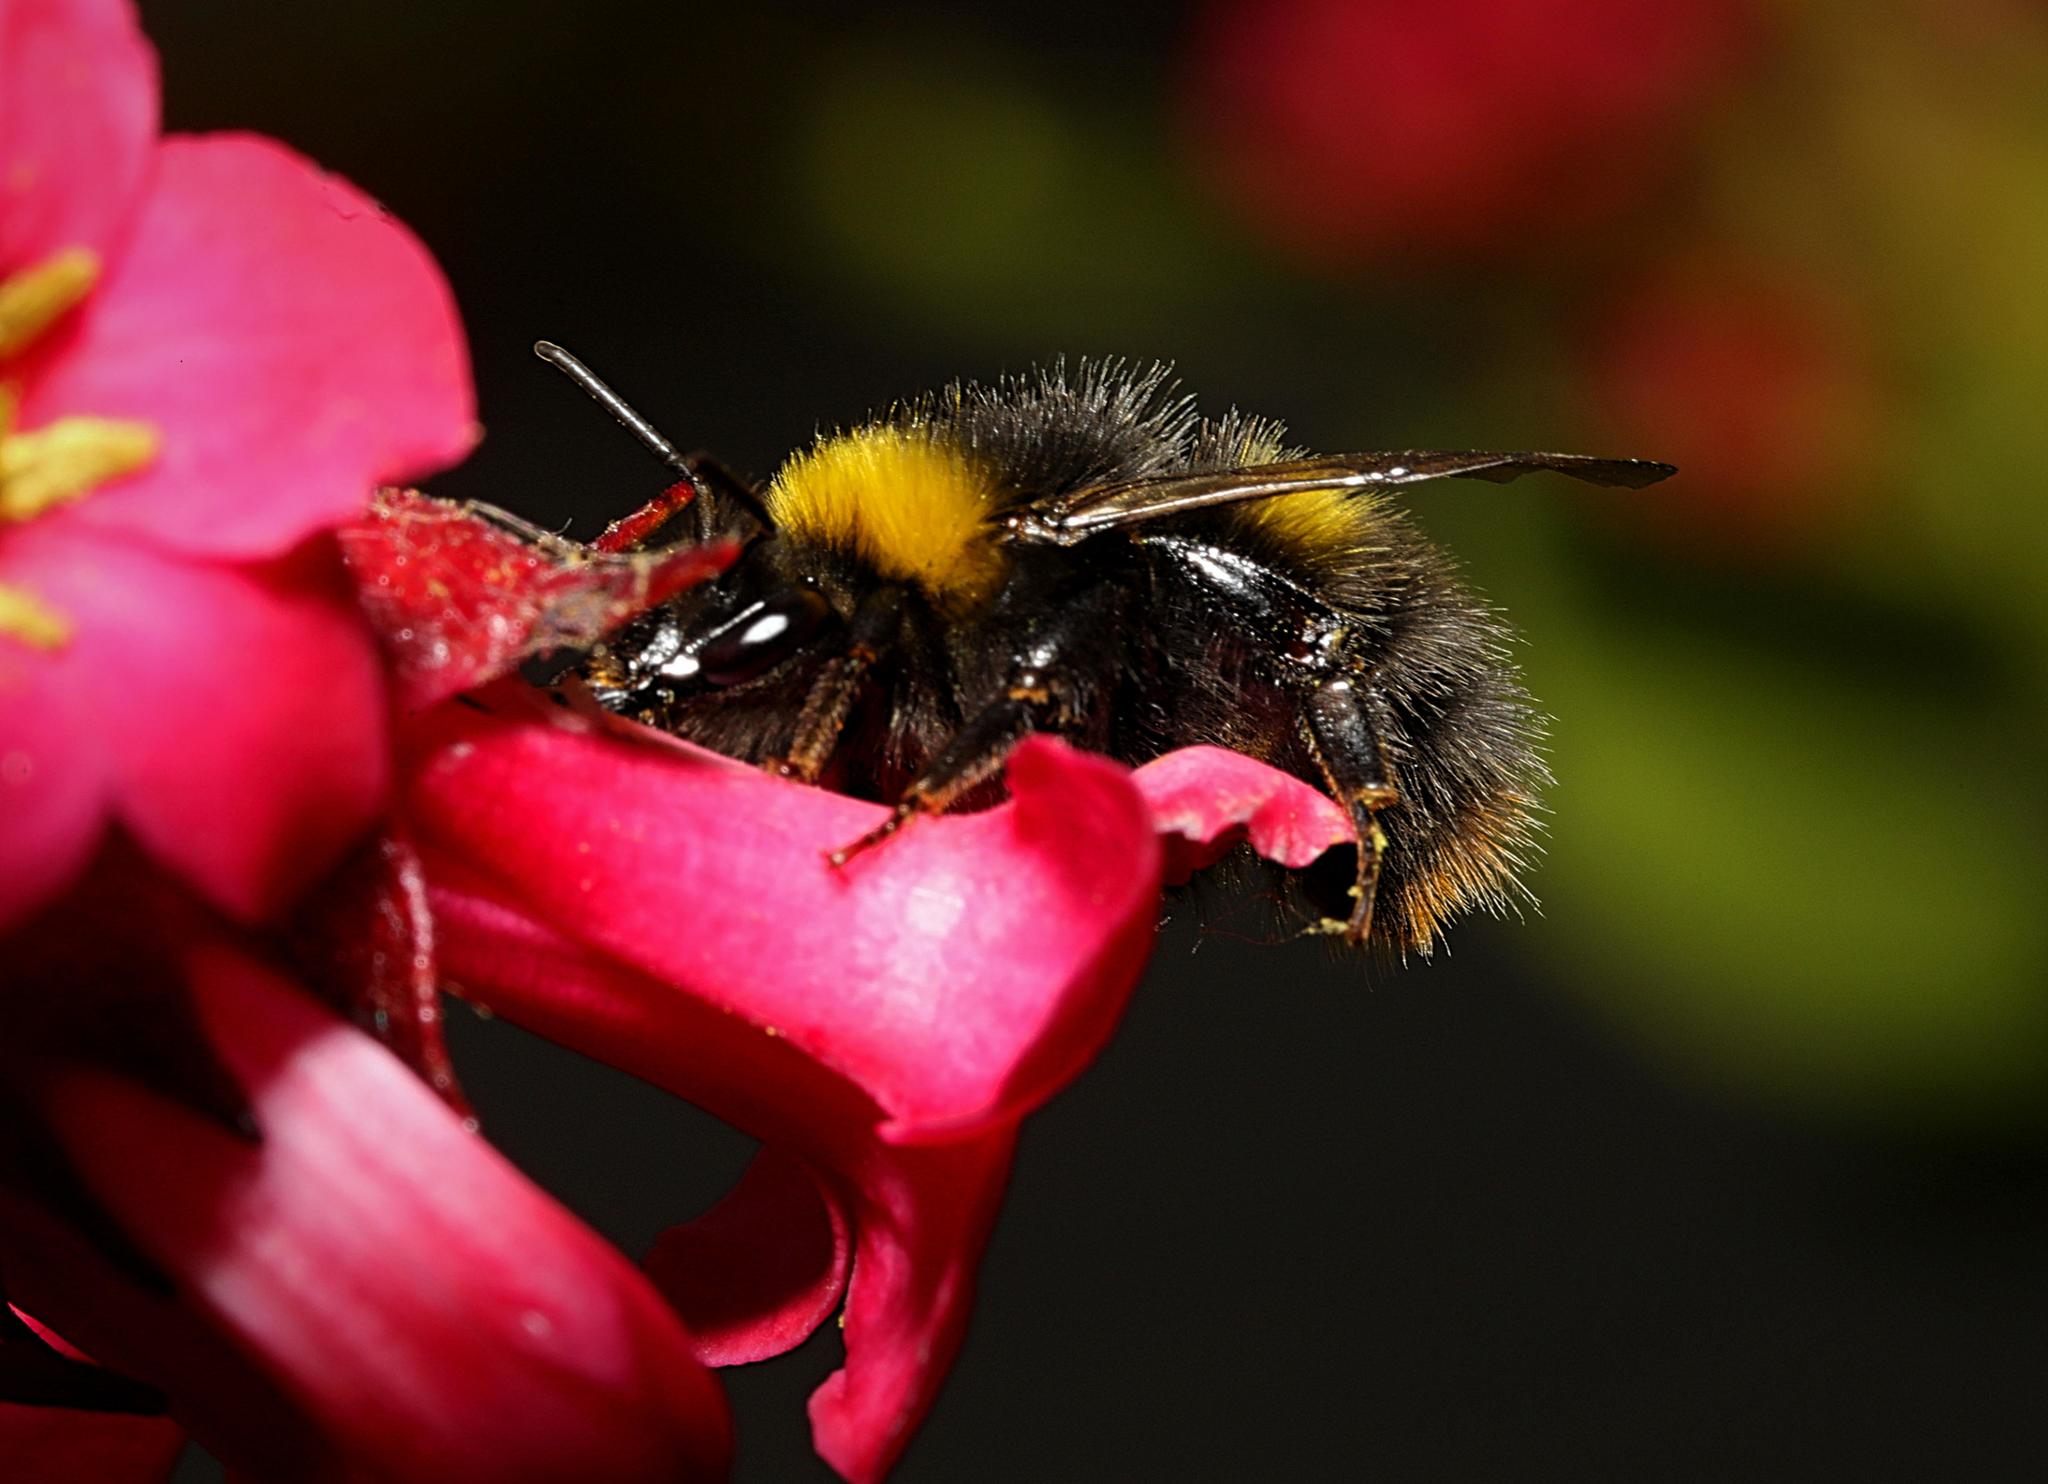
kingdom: Animalia
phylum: Arthropoda
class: Insecta
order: Hymenoptera
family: Apidae
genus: Bombus
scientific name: Bombus pratorum
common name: Early humble-bee
